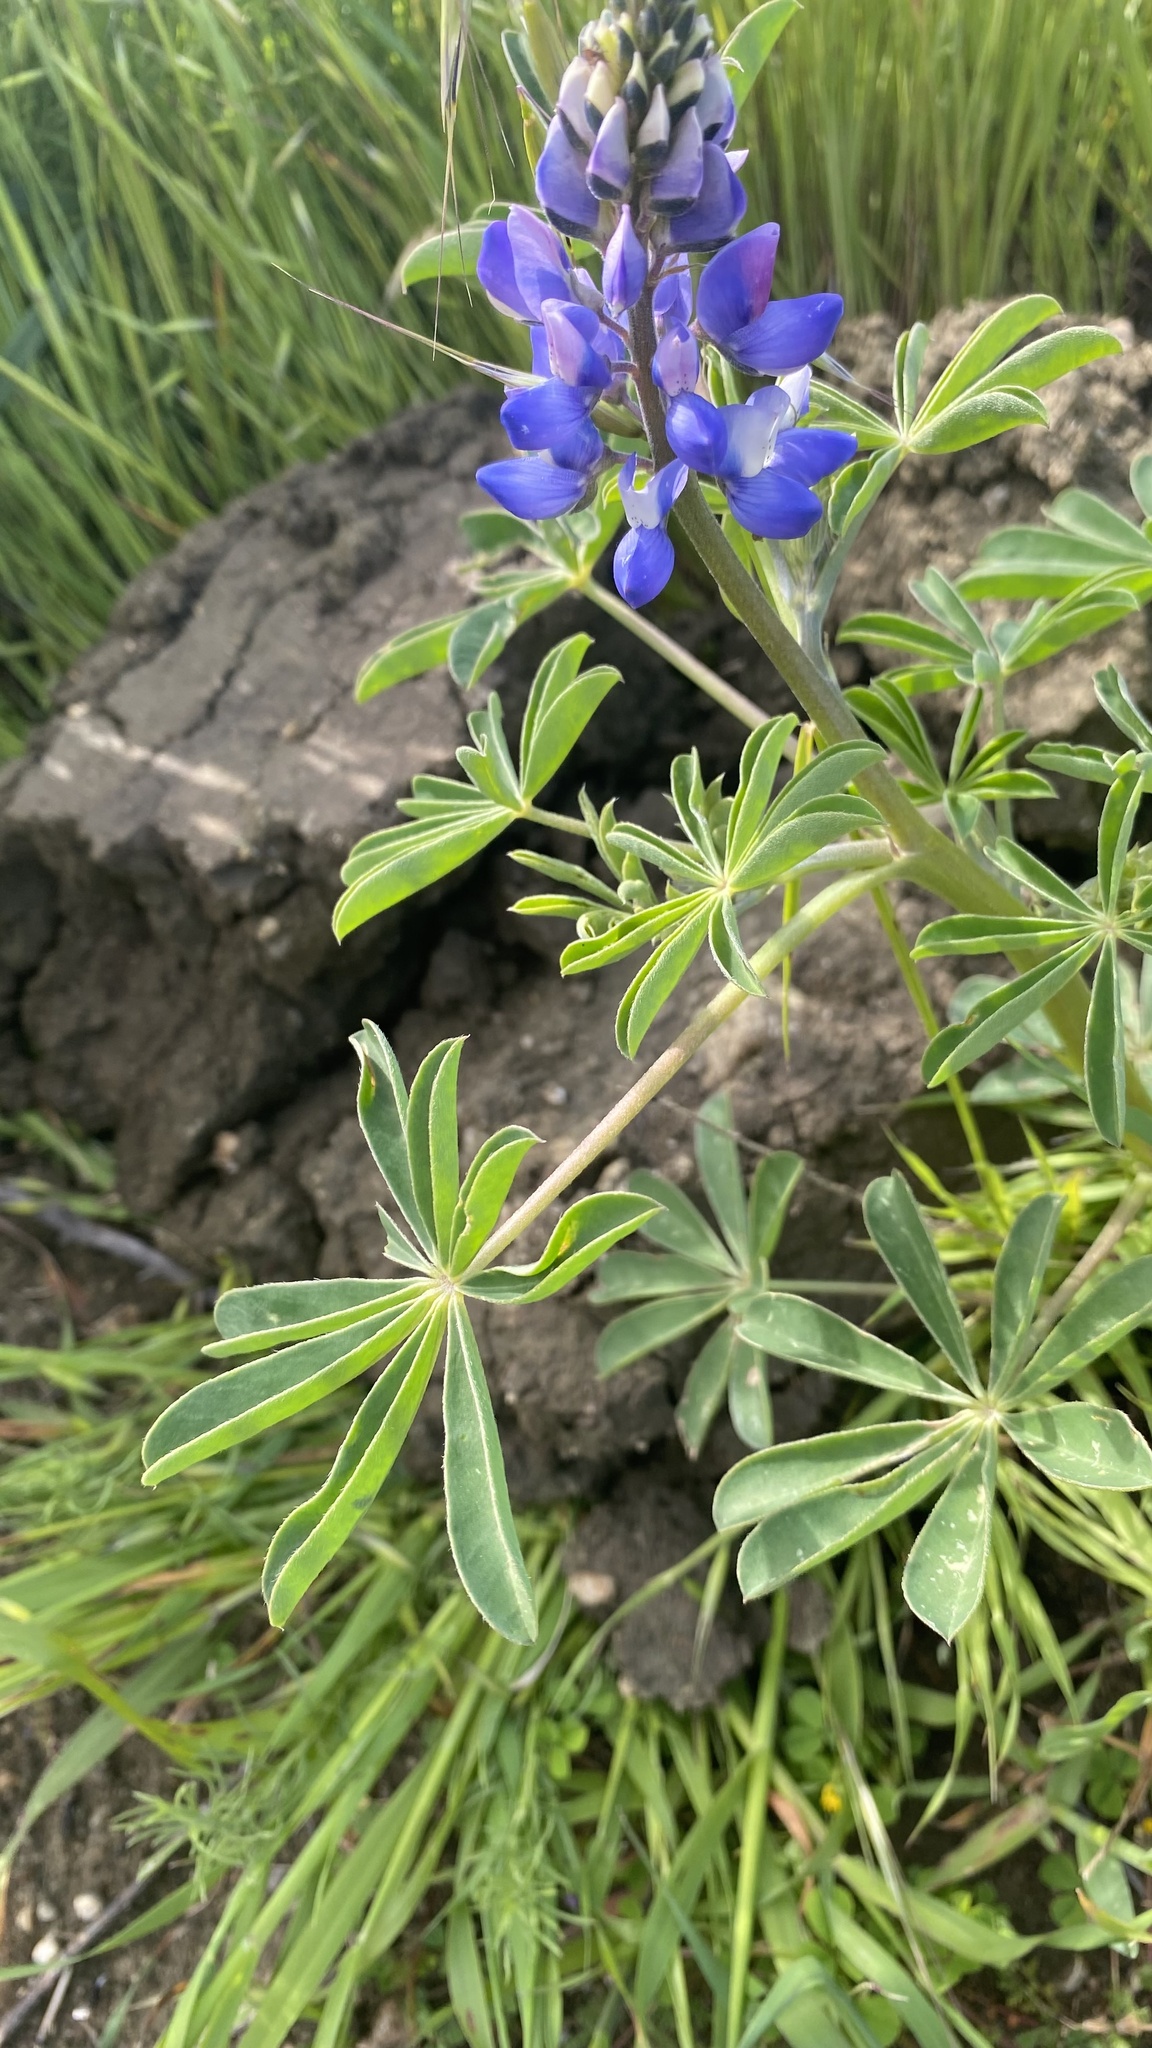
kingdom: Plantae
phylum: Tracheophyta
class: Magnoliopsida
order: Fabales
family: Fabaceae
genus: Lupinus
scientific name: Lupinus succulentus
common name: Arroyo lupine
